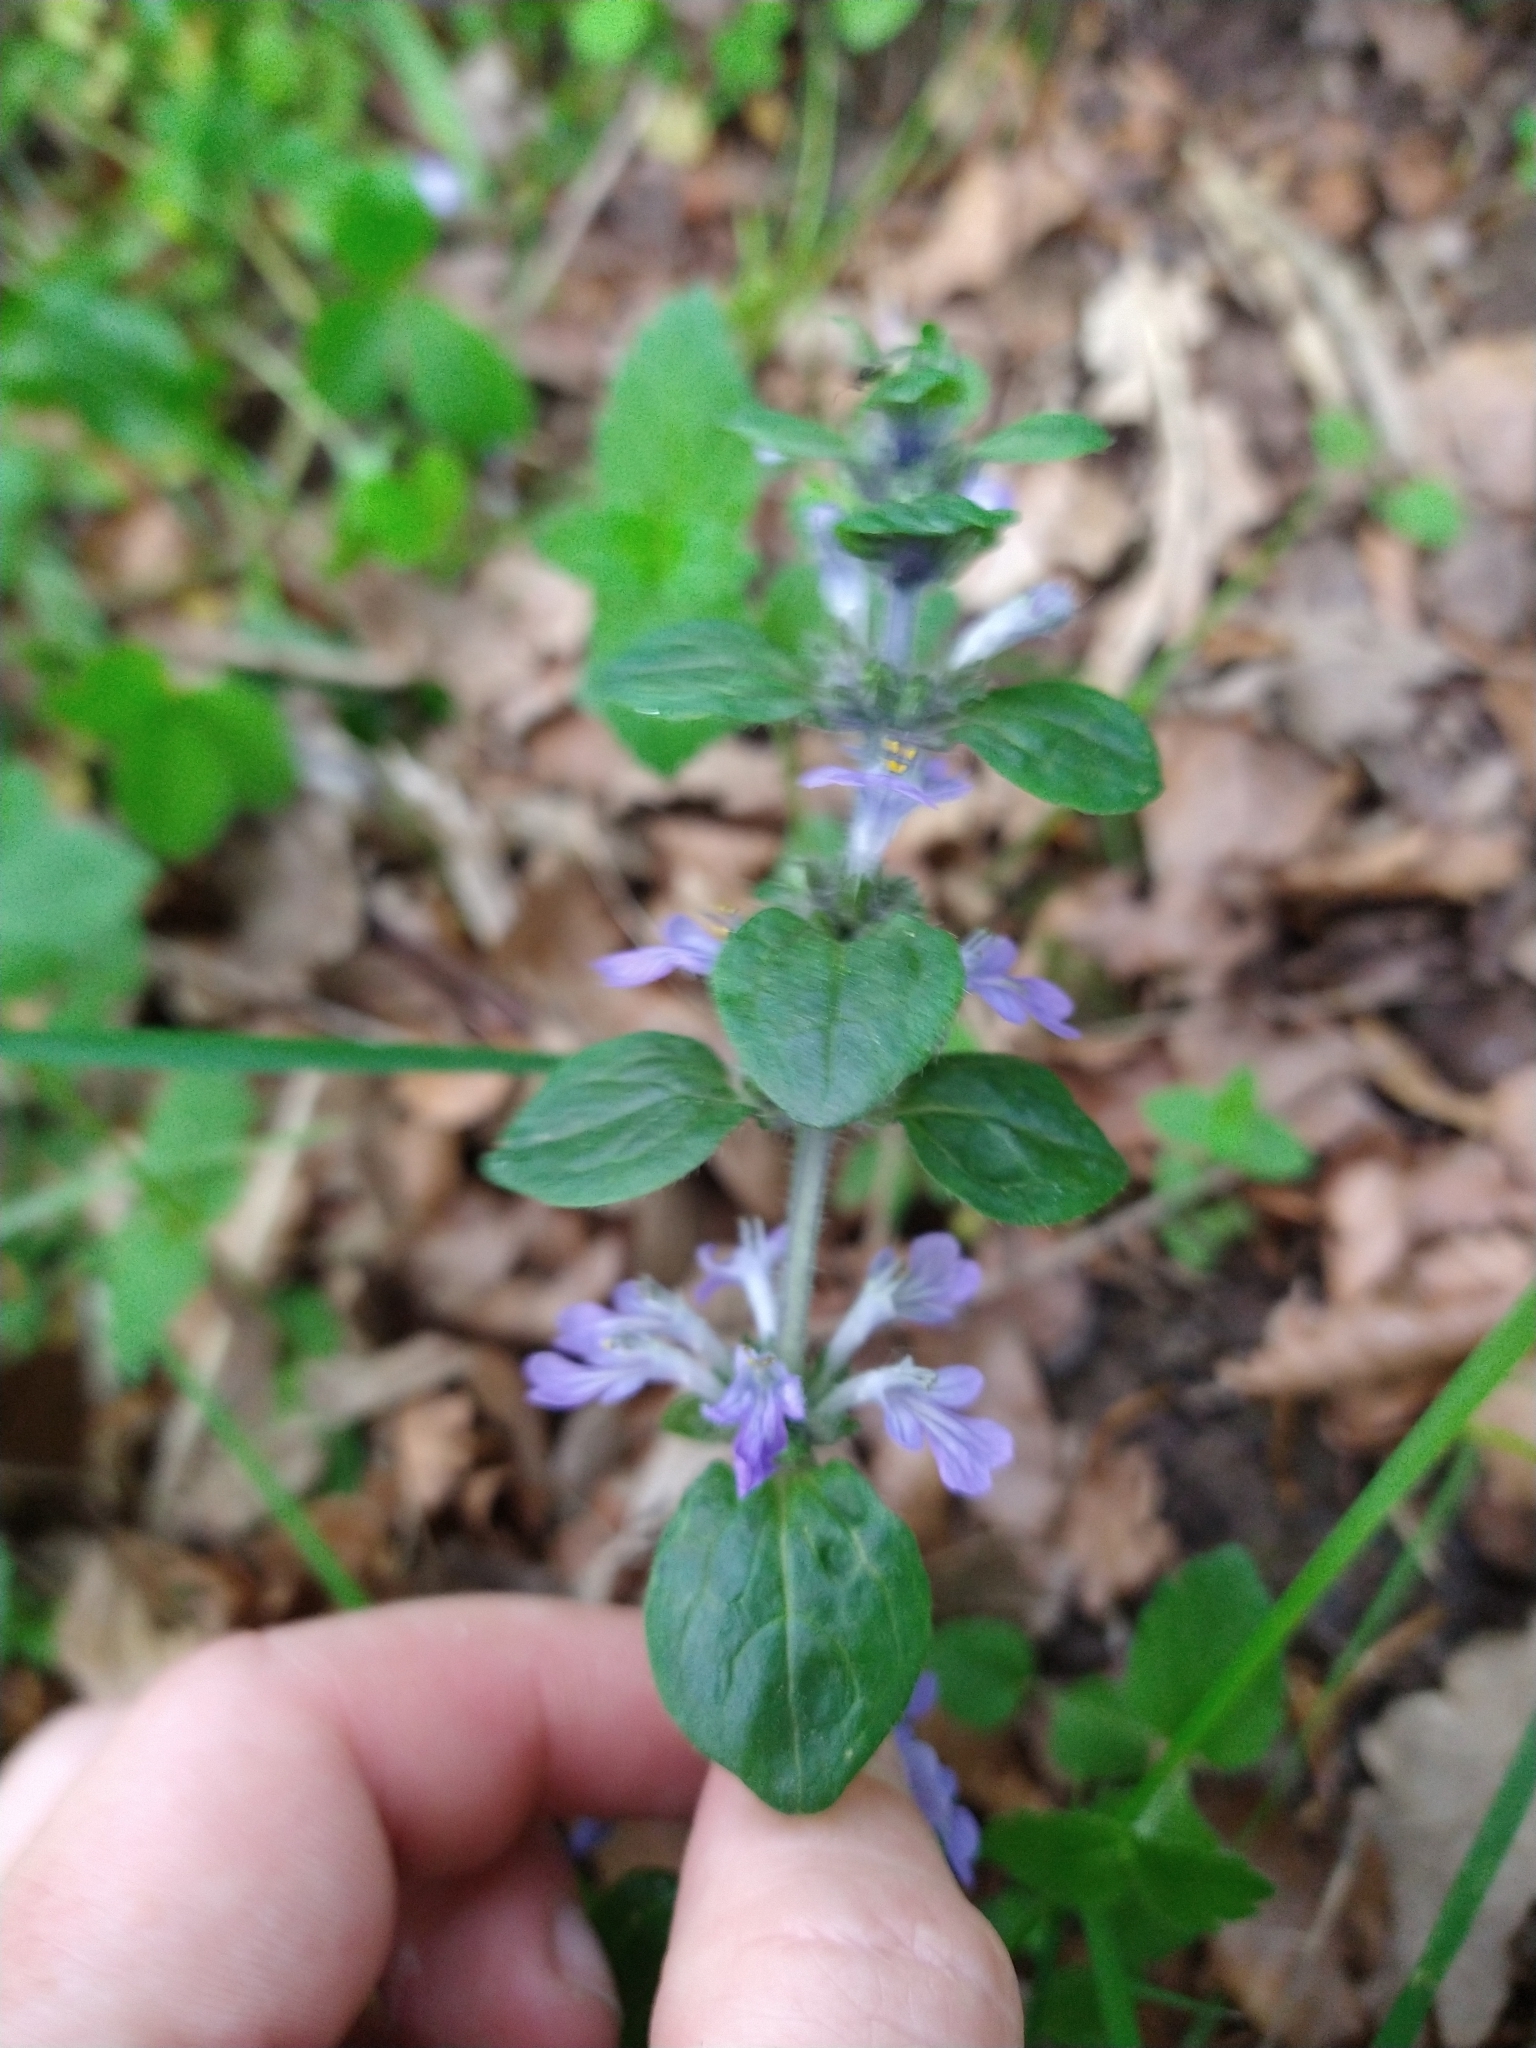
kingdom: Plantae
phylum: Tracheophyta
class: Magnoliopsida
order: Lamiales
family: Lamiaceae
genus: Ajuga
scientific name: Ajuga reptans
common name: Bugle
